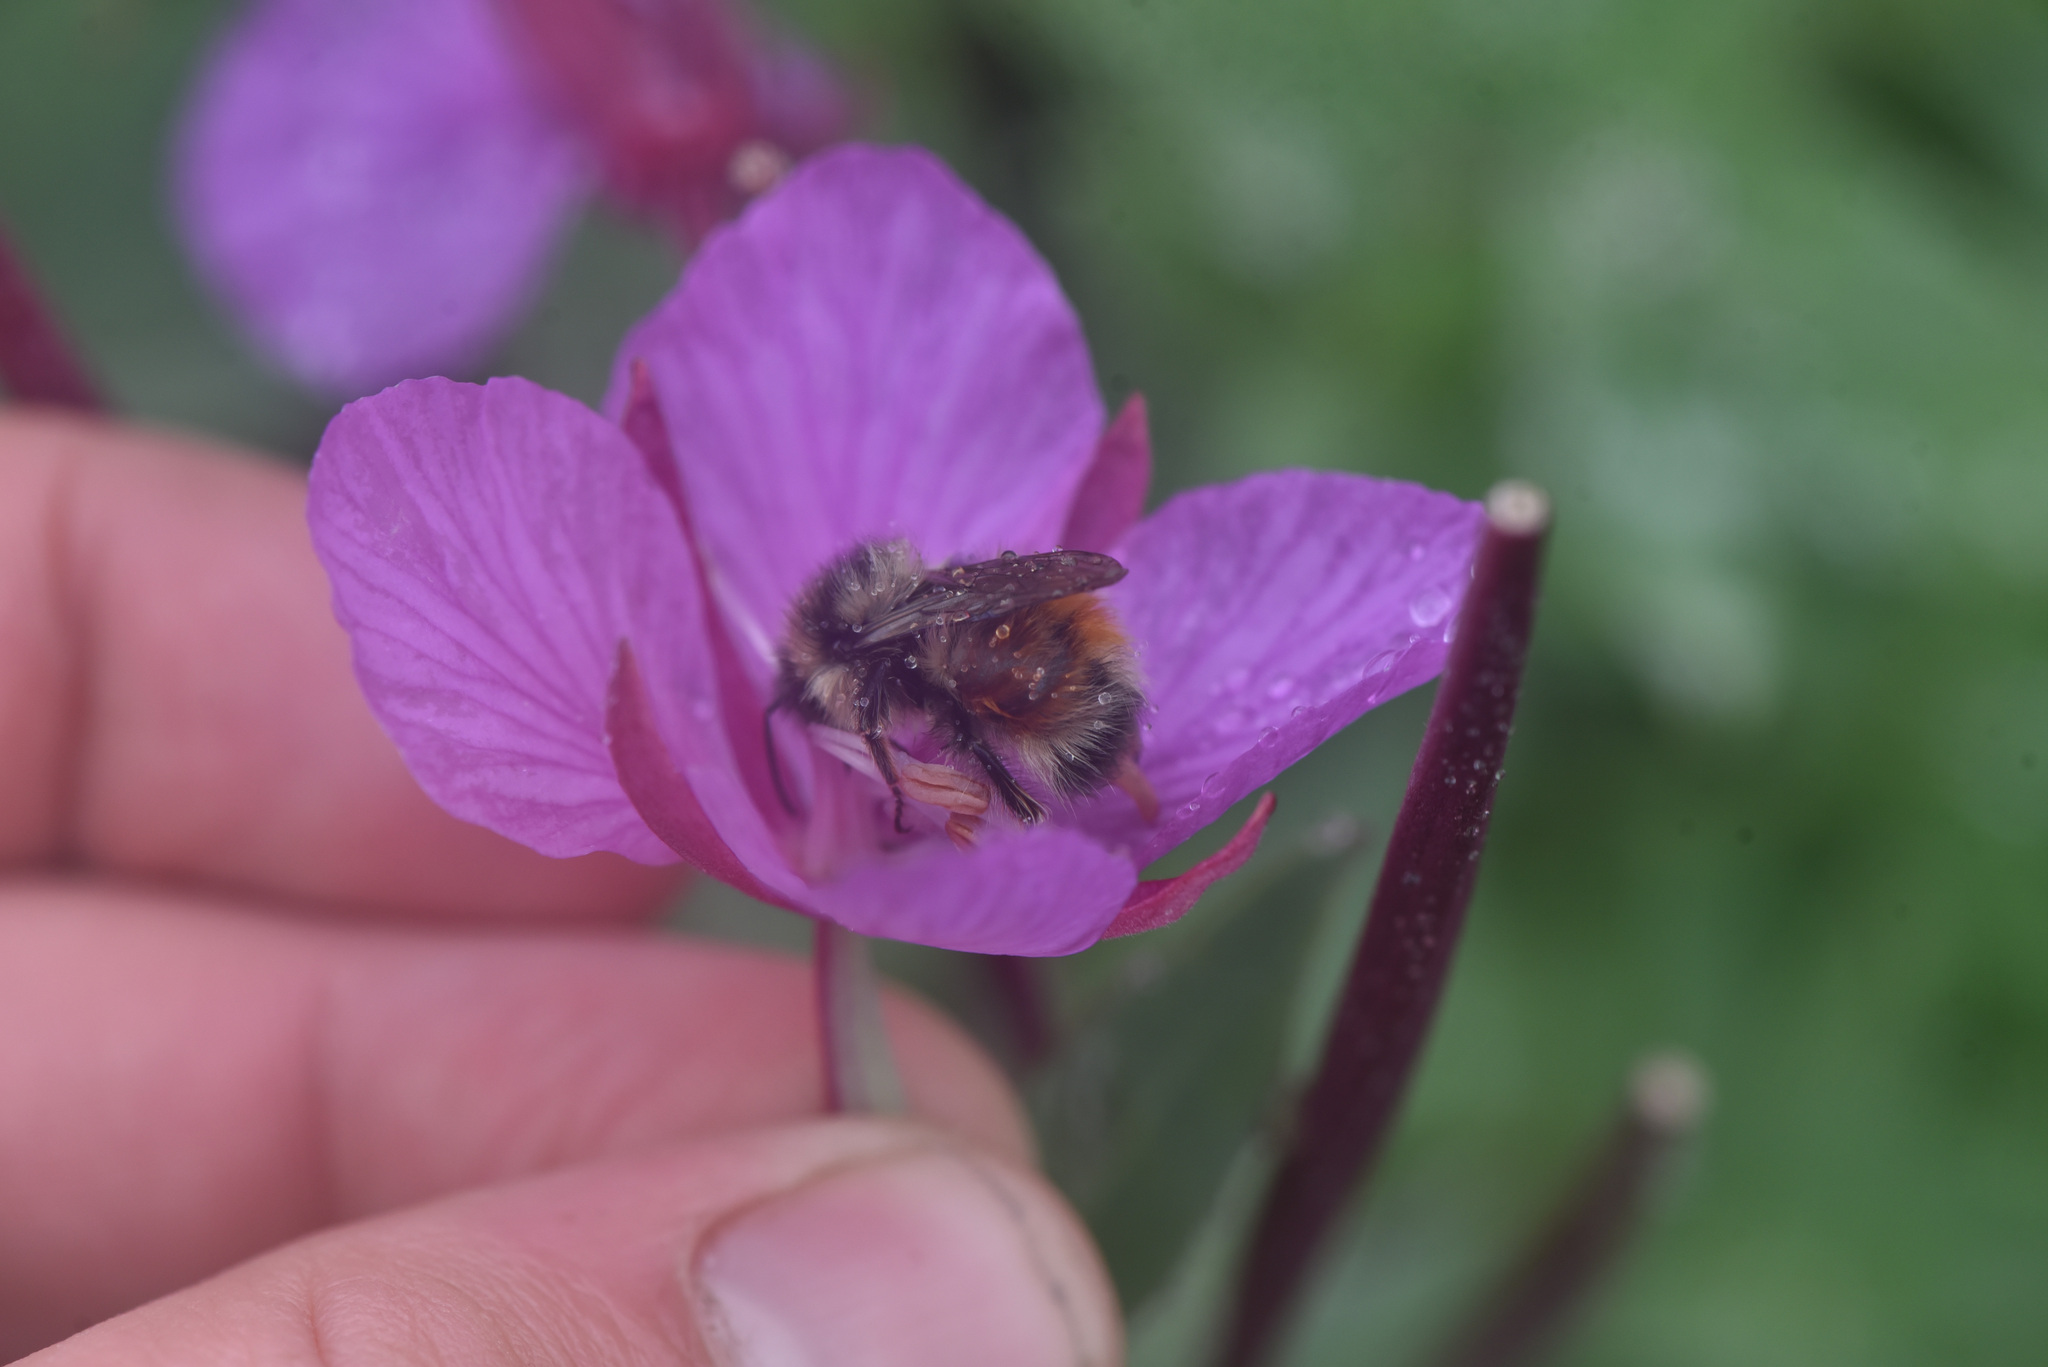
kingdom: Animalia
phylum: Arthropoda
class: Insecta
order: Hymenoptera
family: Apidae
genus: Bombus
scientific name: Bombus sylvicola
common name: Forest bumble bee
